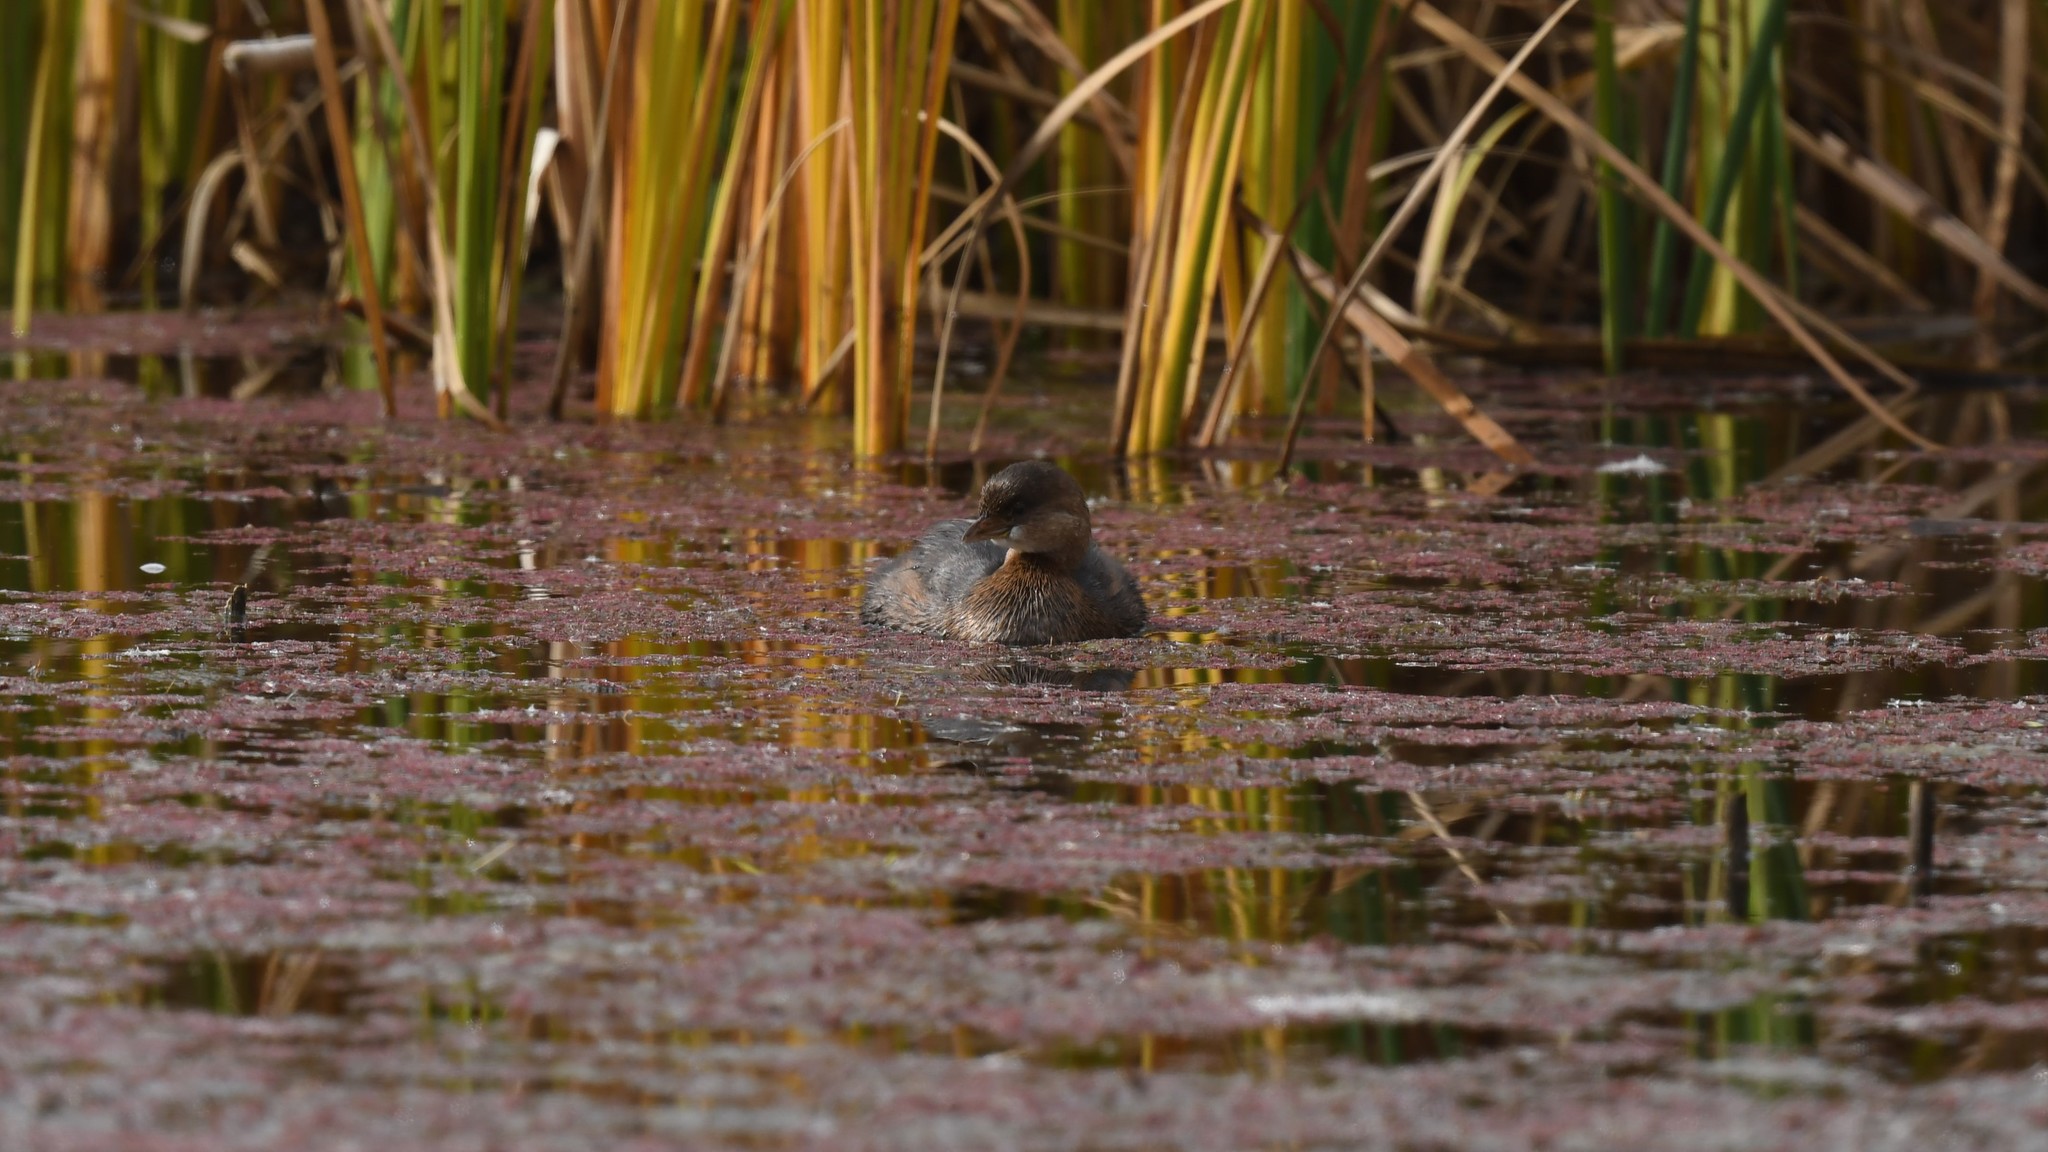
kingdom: Animalia
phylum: Chordata
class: Aves
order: Podicipediformes
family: Podicipedidae
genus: Podilymbus
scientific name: Podilymbus podiceps
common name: Pied-billed grebe
